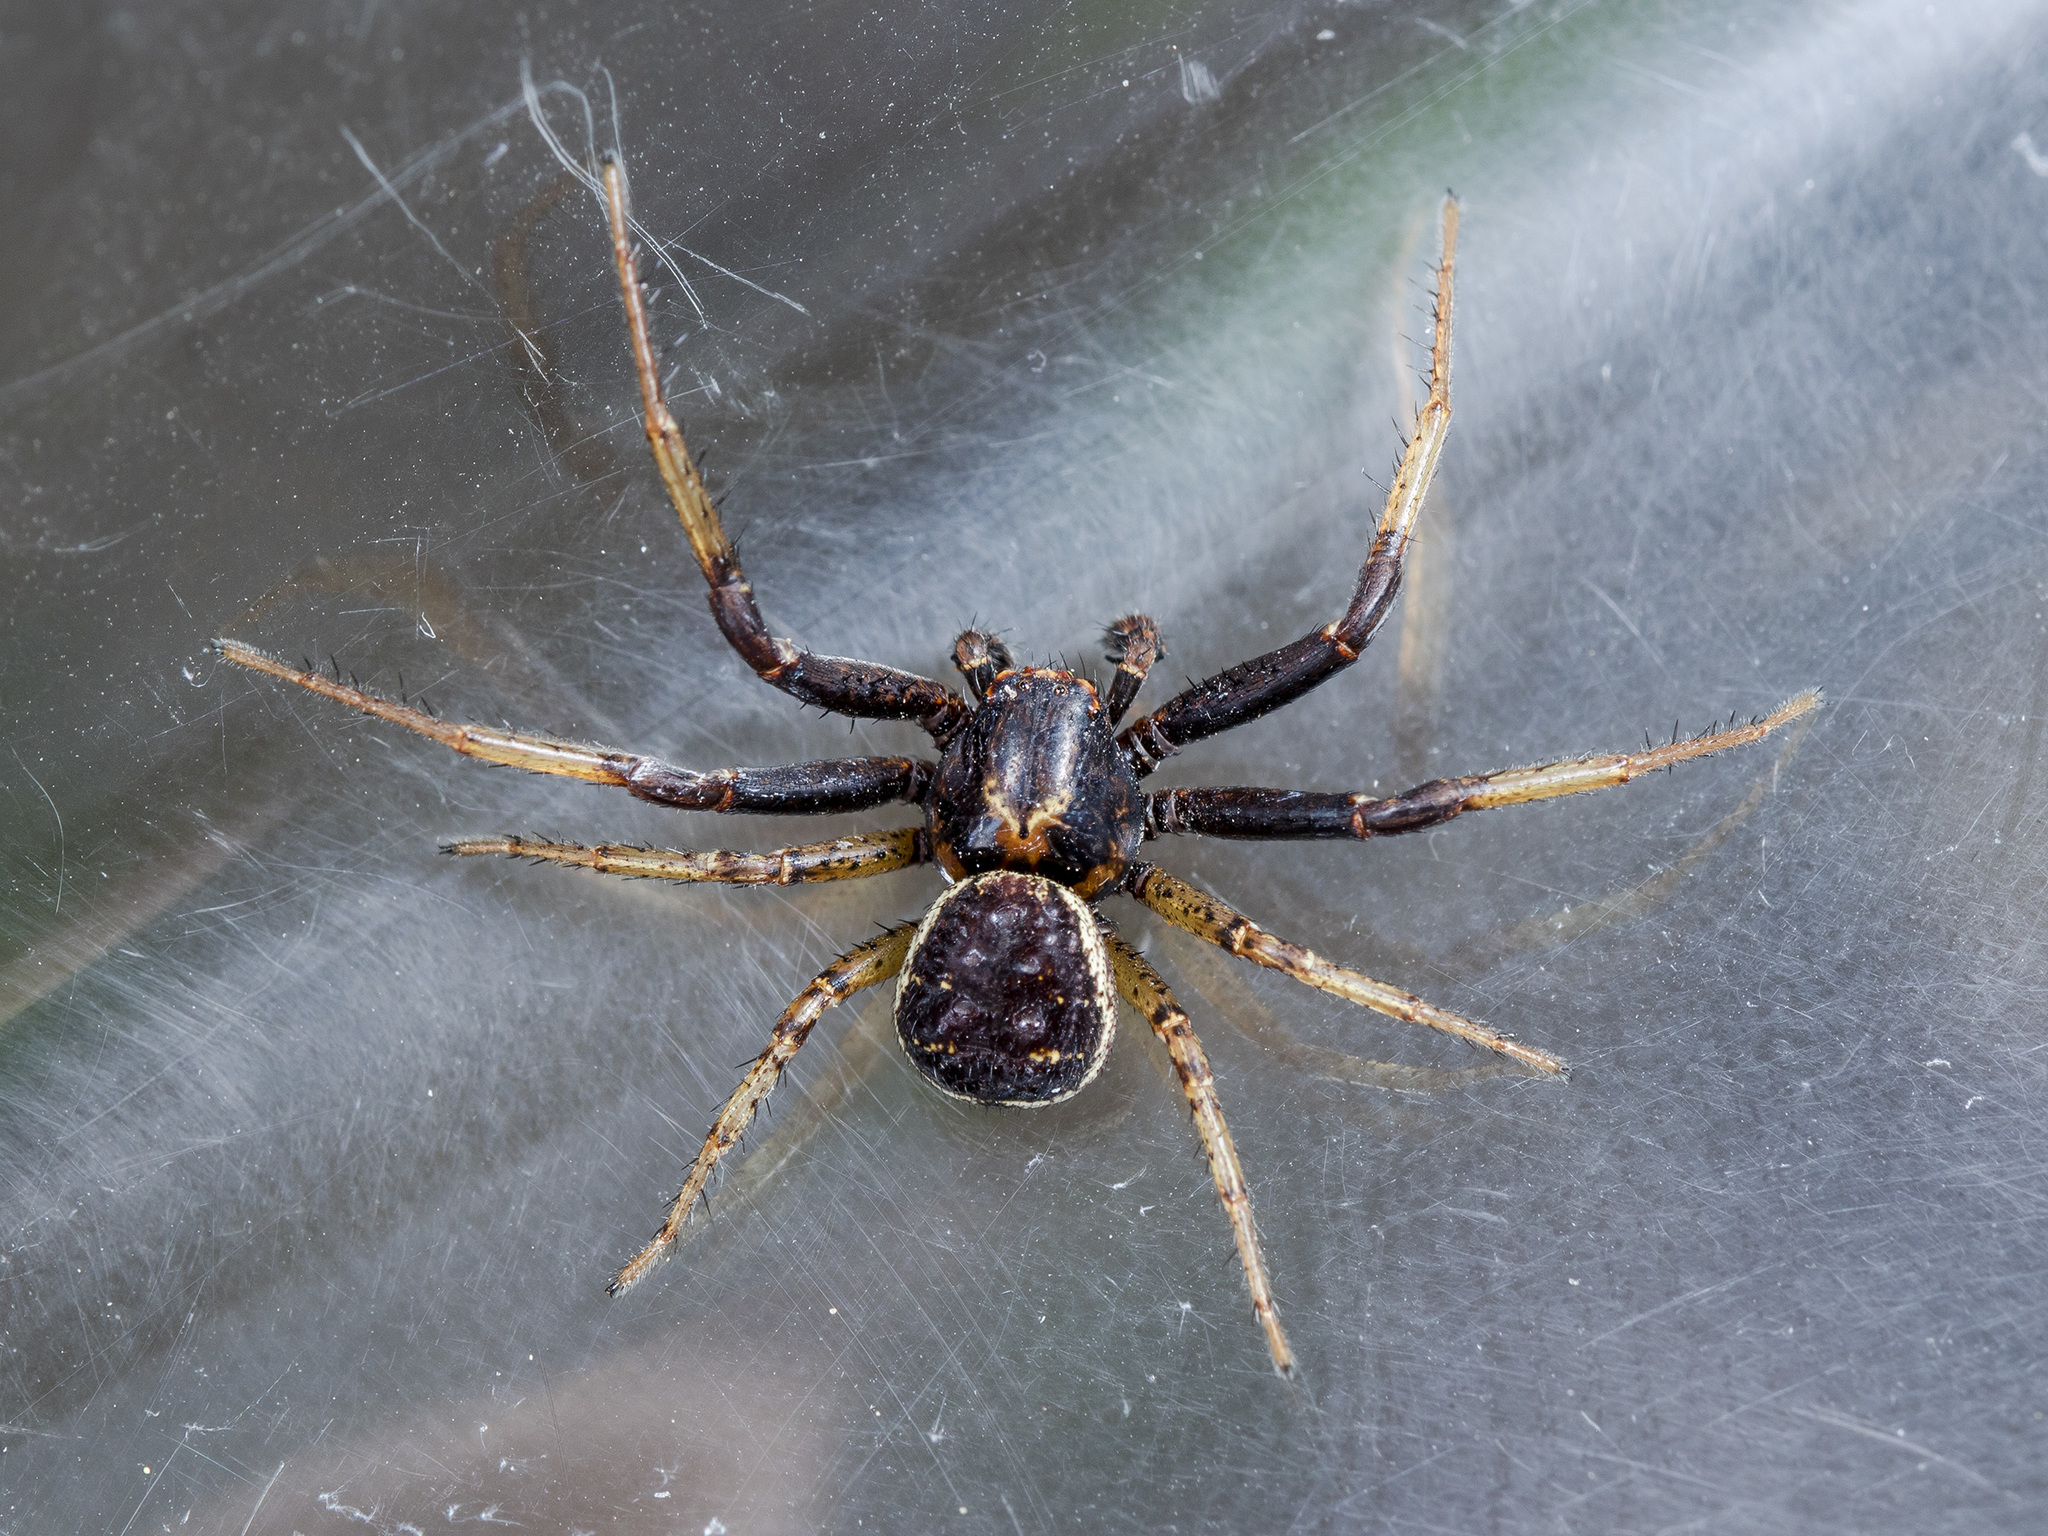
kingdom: Animalia
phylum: Arthropoda
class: Arachnida
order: Araneae
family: Thomisidae
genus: Xysticus
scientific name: Xysticus ephippiatus
